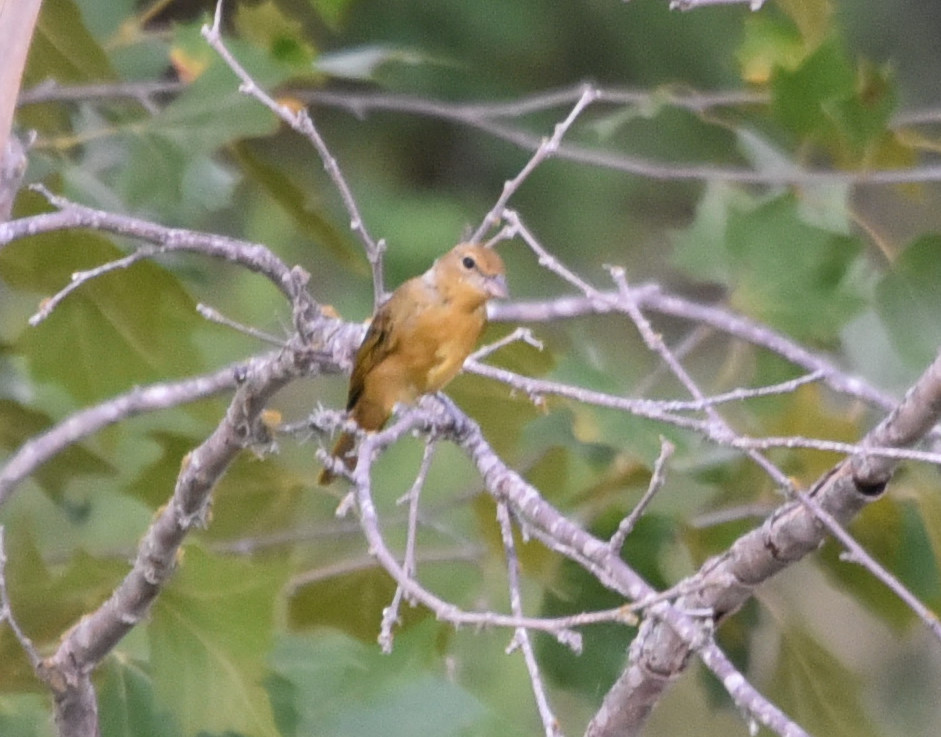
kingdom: Animalia
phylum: Chordata
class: Aves
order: Passeriformes
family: Cardinalidae
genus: Piranga
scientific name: Piranga rubra
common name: Summer tanager
